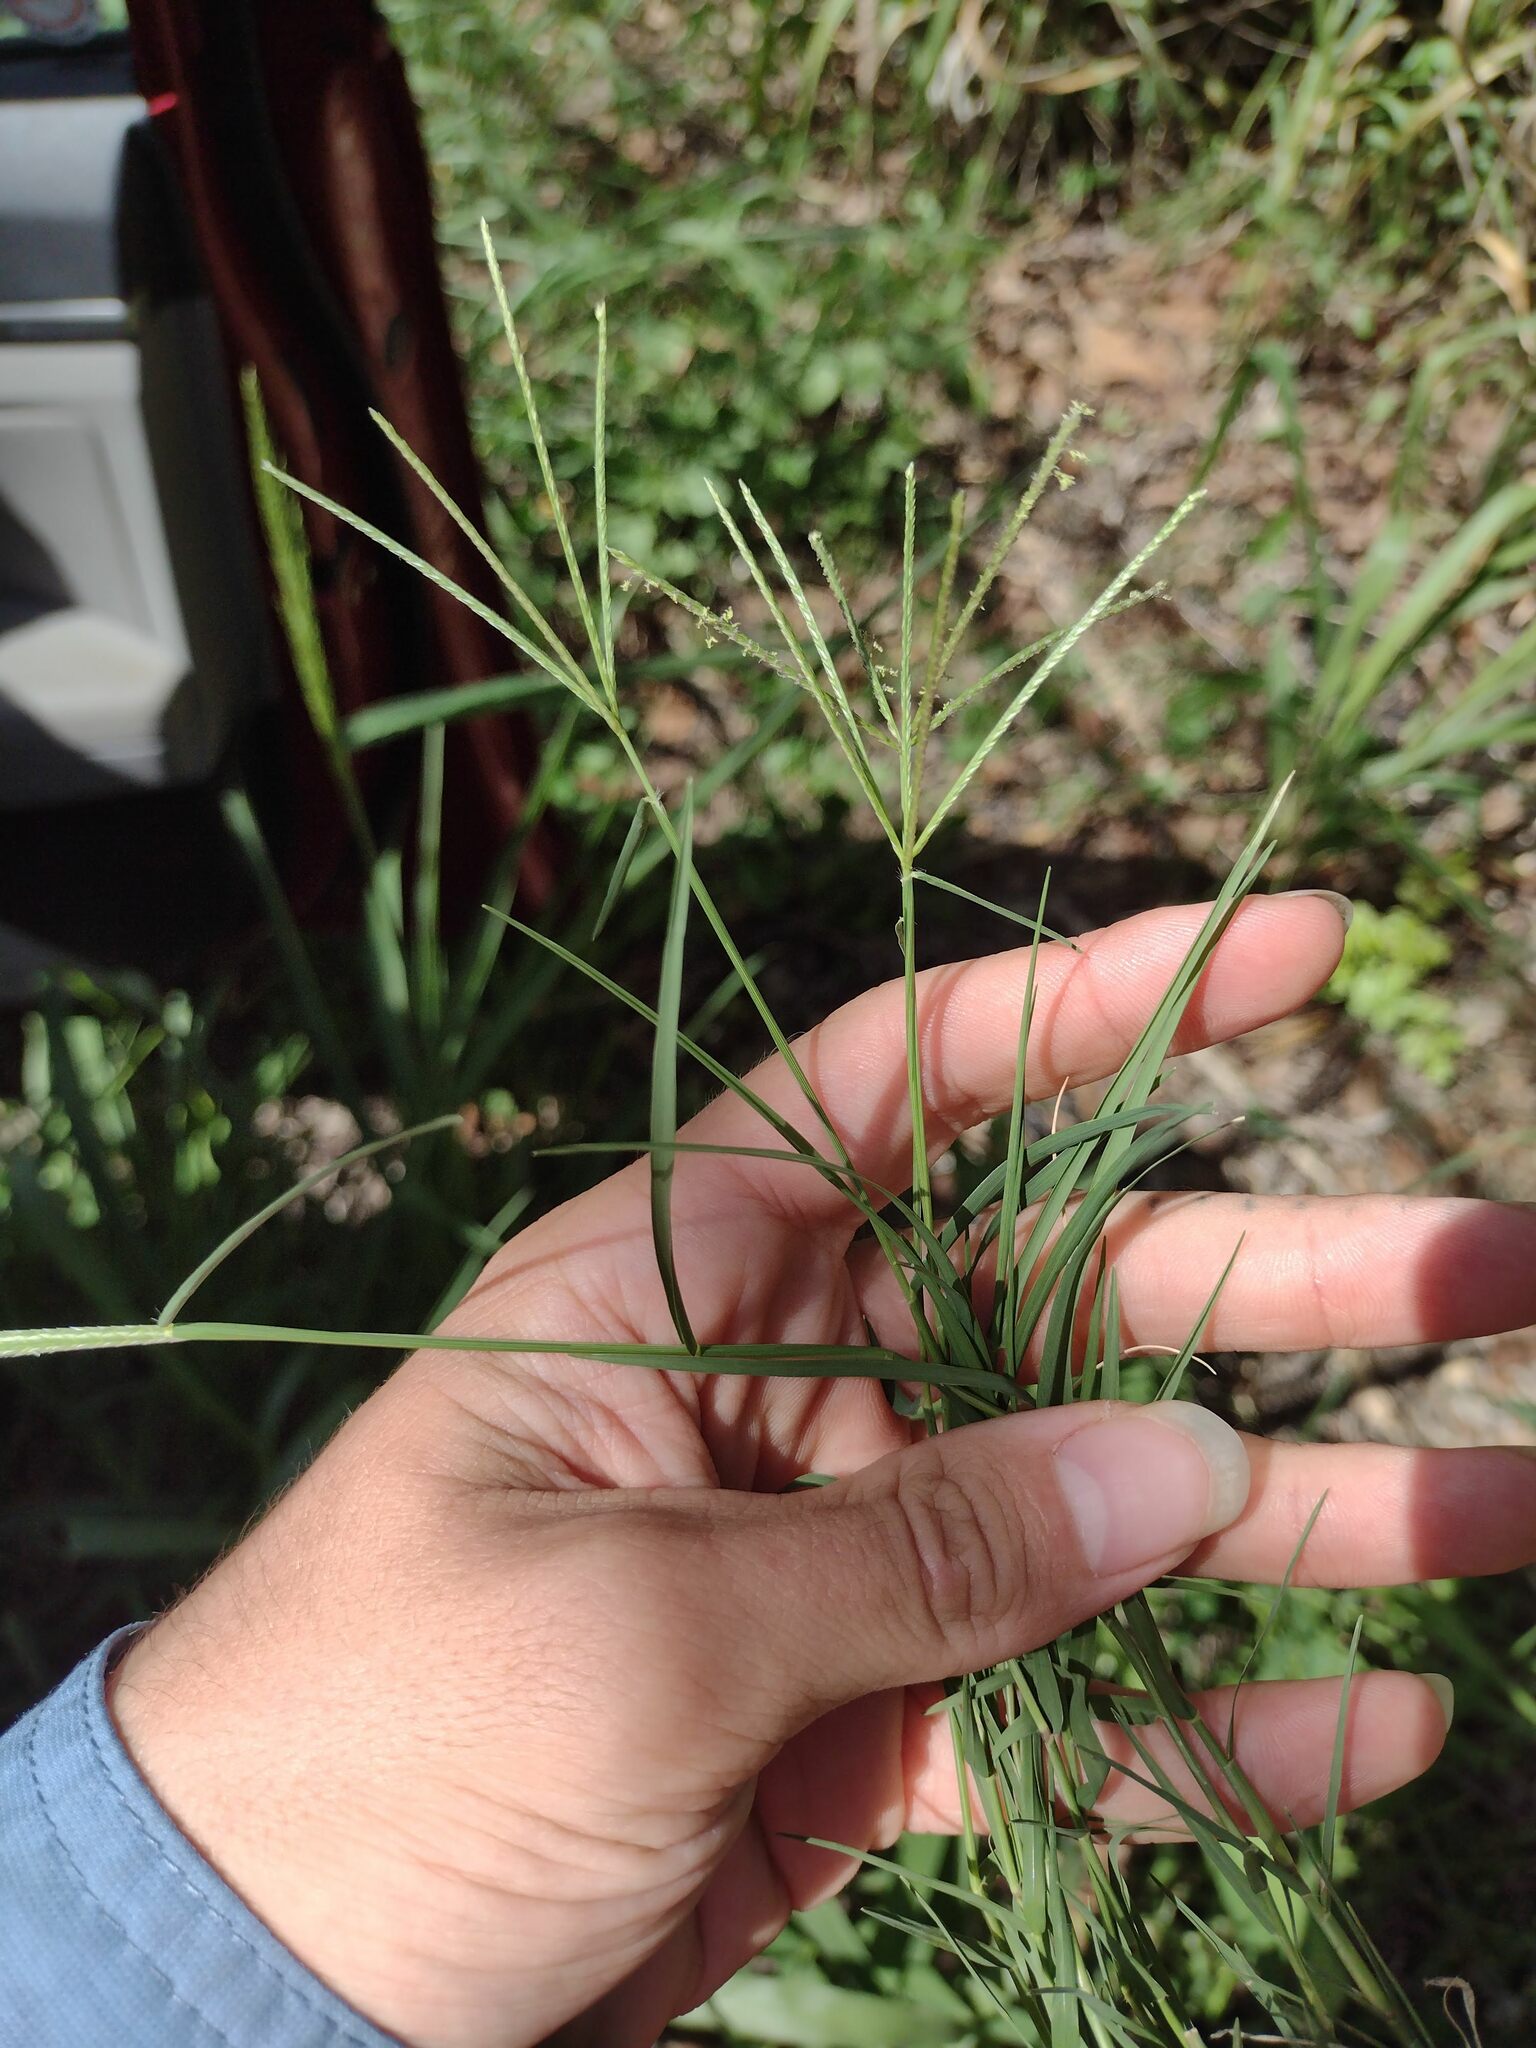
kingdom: Plantae
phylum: Tracheophyta
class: Liliopsida
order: Poales
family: Poaceae
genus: Cynodon
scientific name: Cynodon dactylon
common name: Bermuda grass
